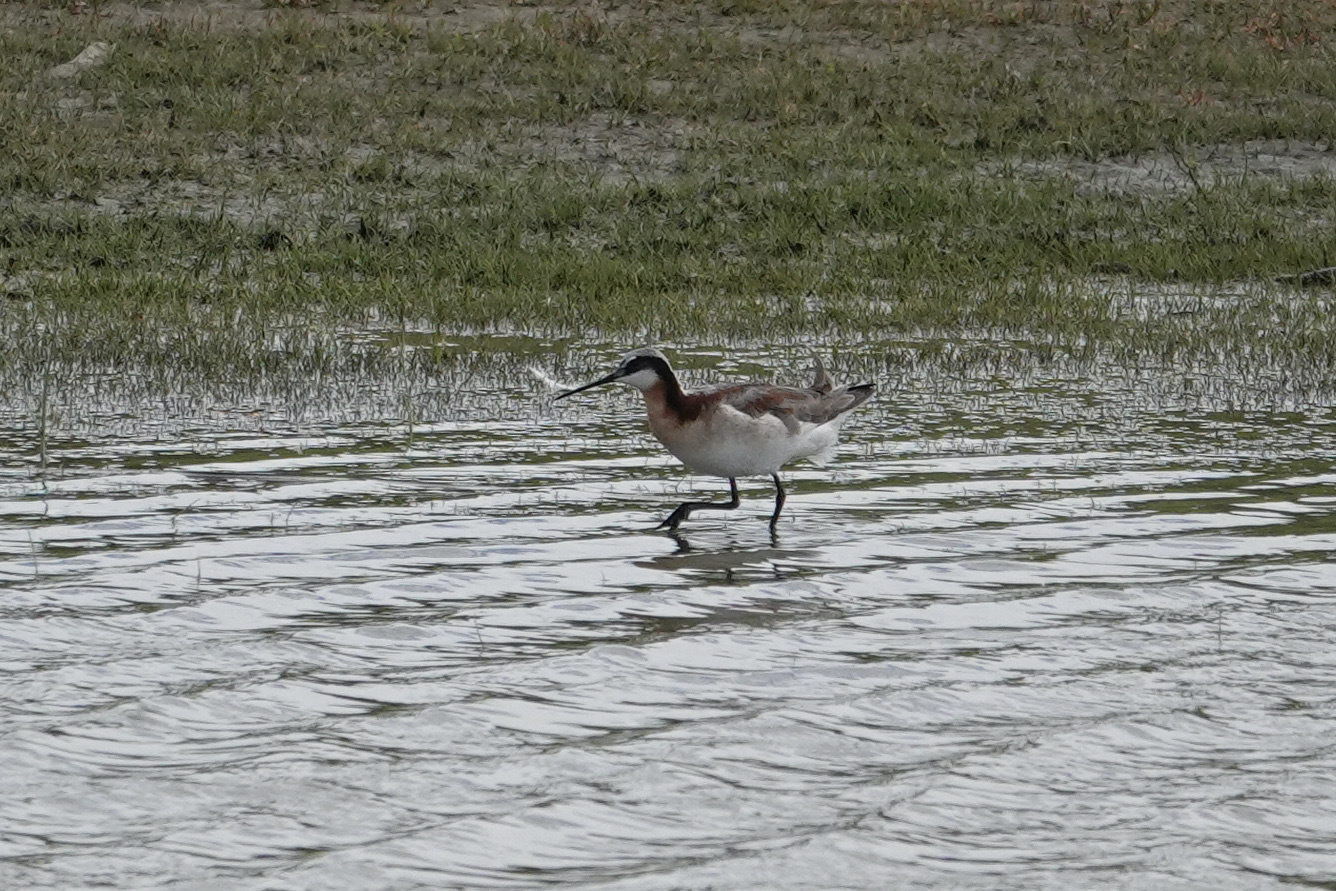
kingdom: Animalia
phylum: Chordata
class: Aves
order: Charadriiformes
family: Scolopacidae
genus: Phalaropus
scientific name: Phalaropus tricolor
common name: Wilson's phalarope
